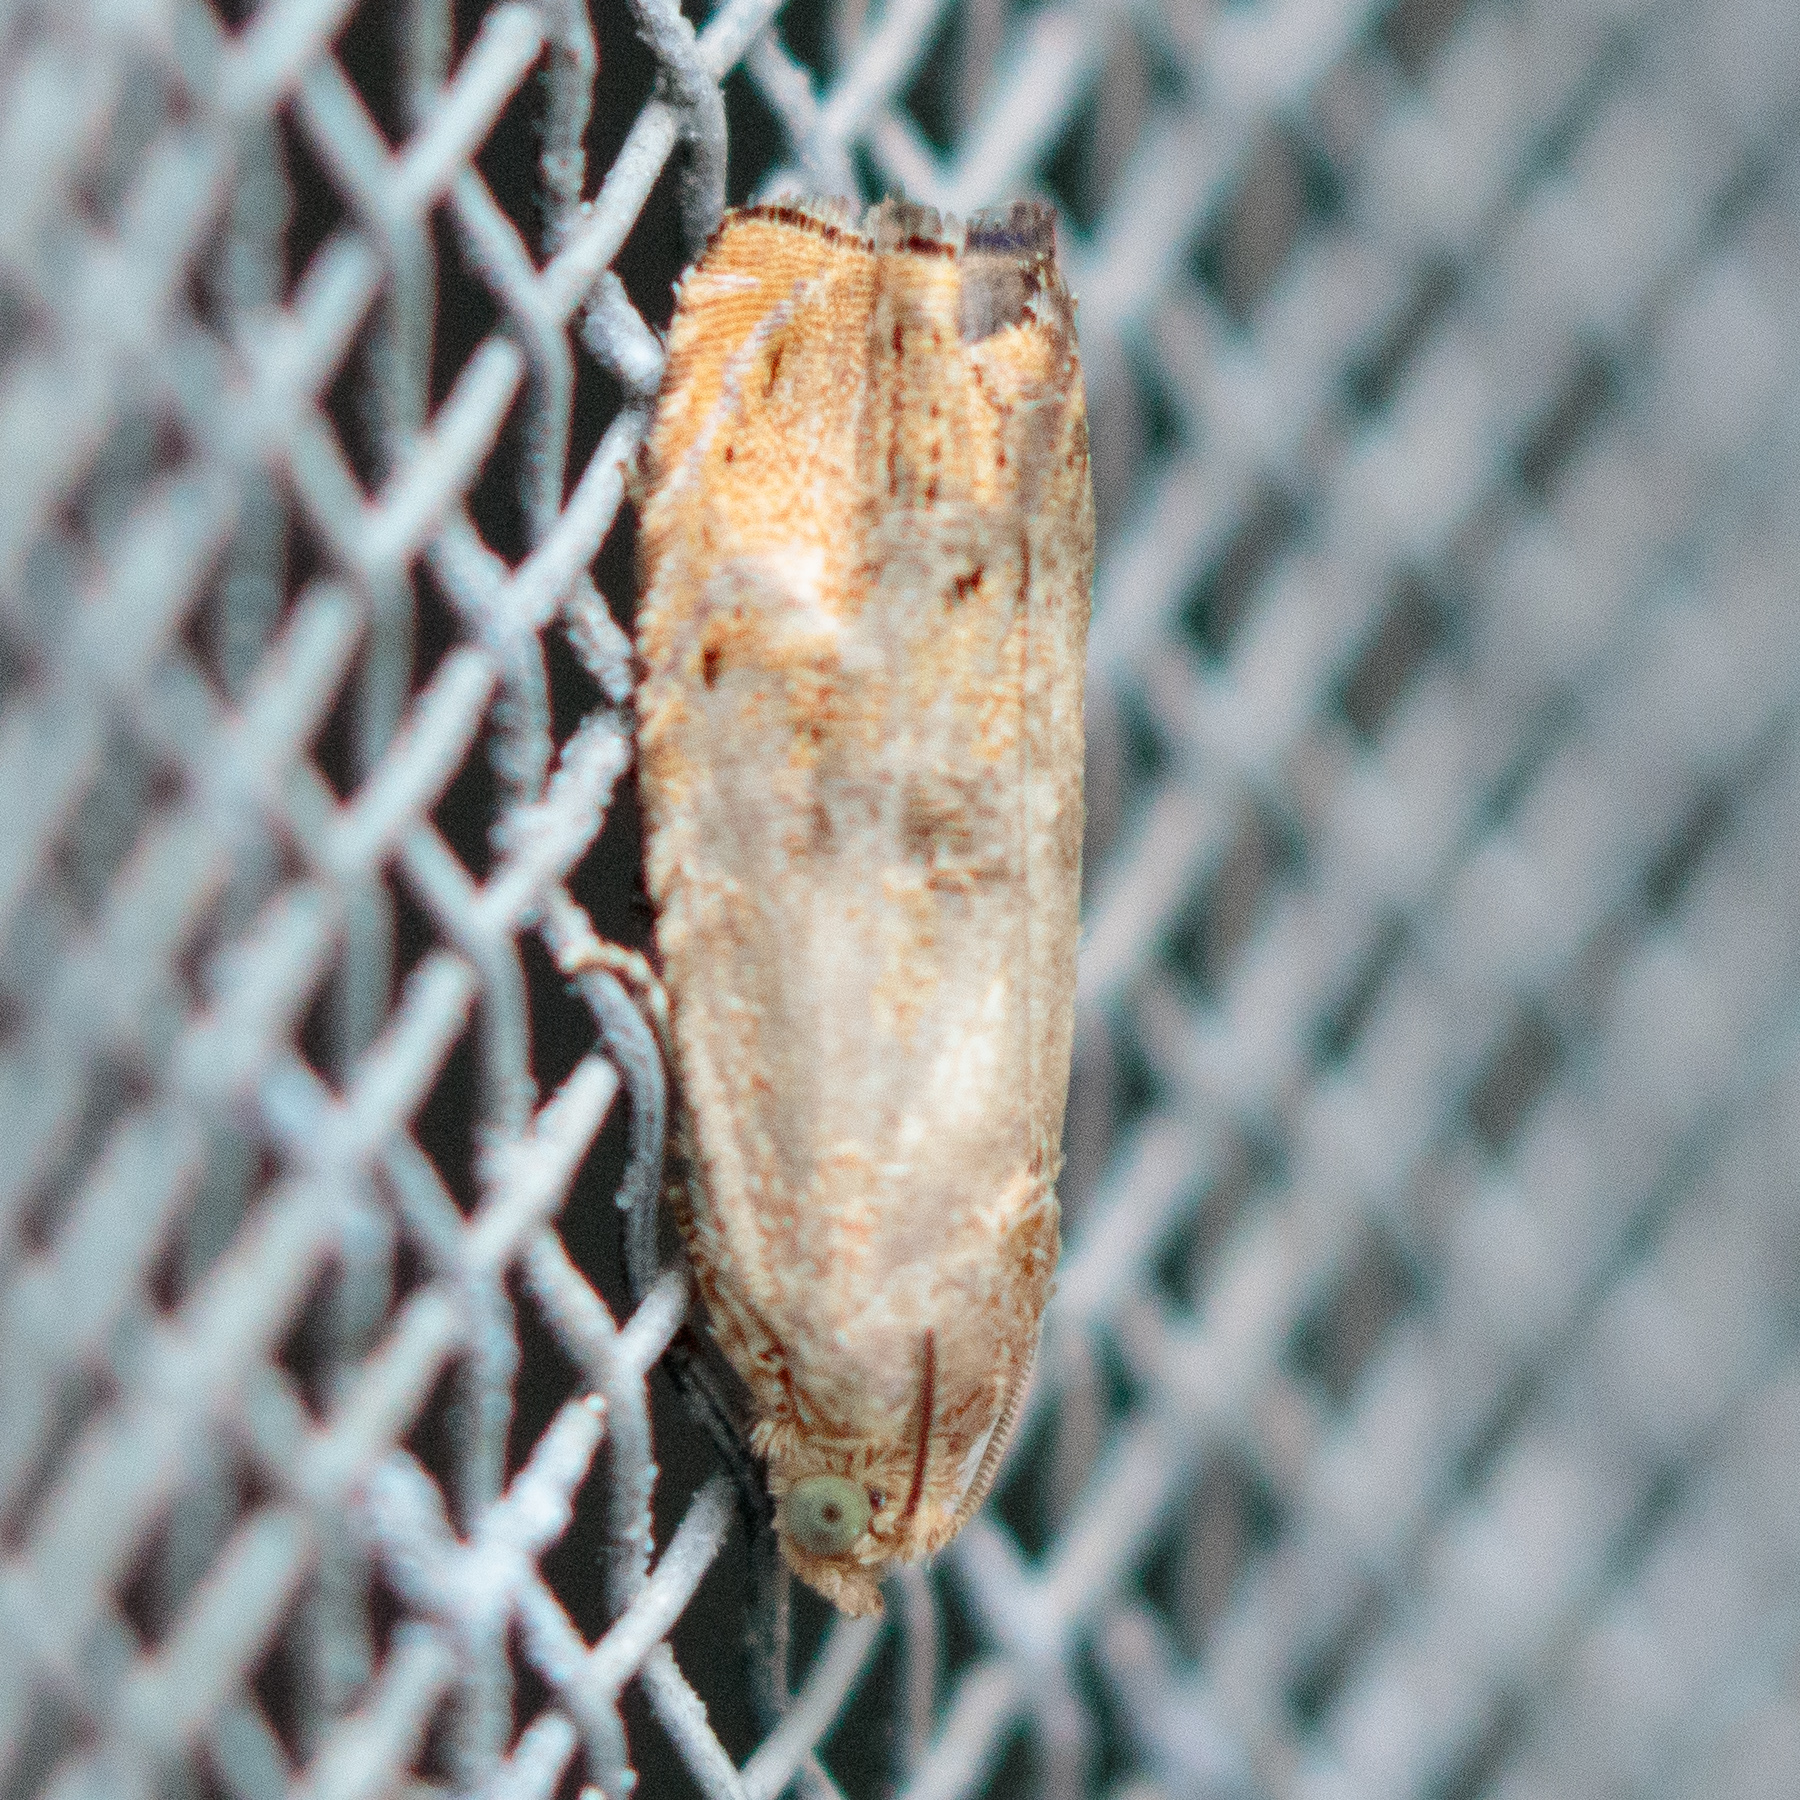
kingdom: Animalia
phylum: Arthropoda
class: Insecta
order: Lepidoptera
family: Tortricidae
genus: Cydia
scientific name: Cydia latiferreana
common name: Filbertworm moth
